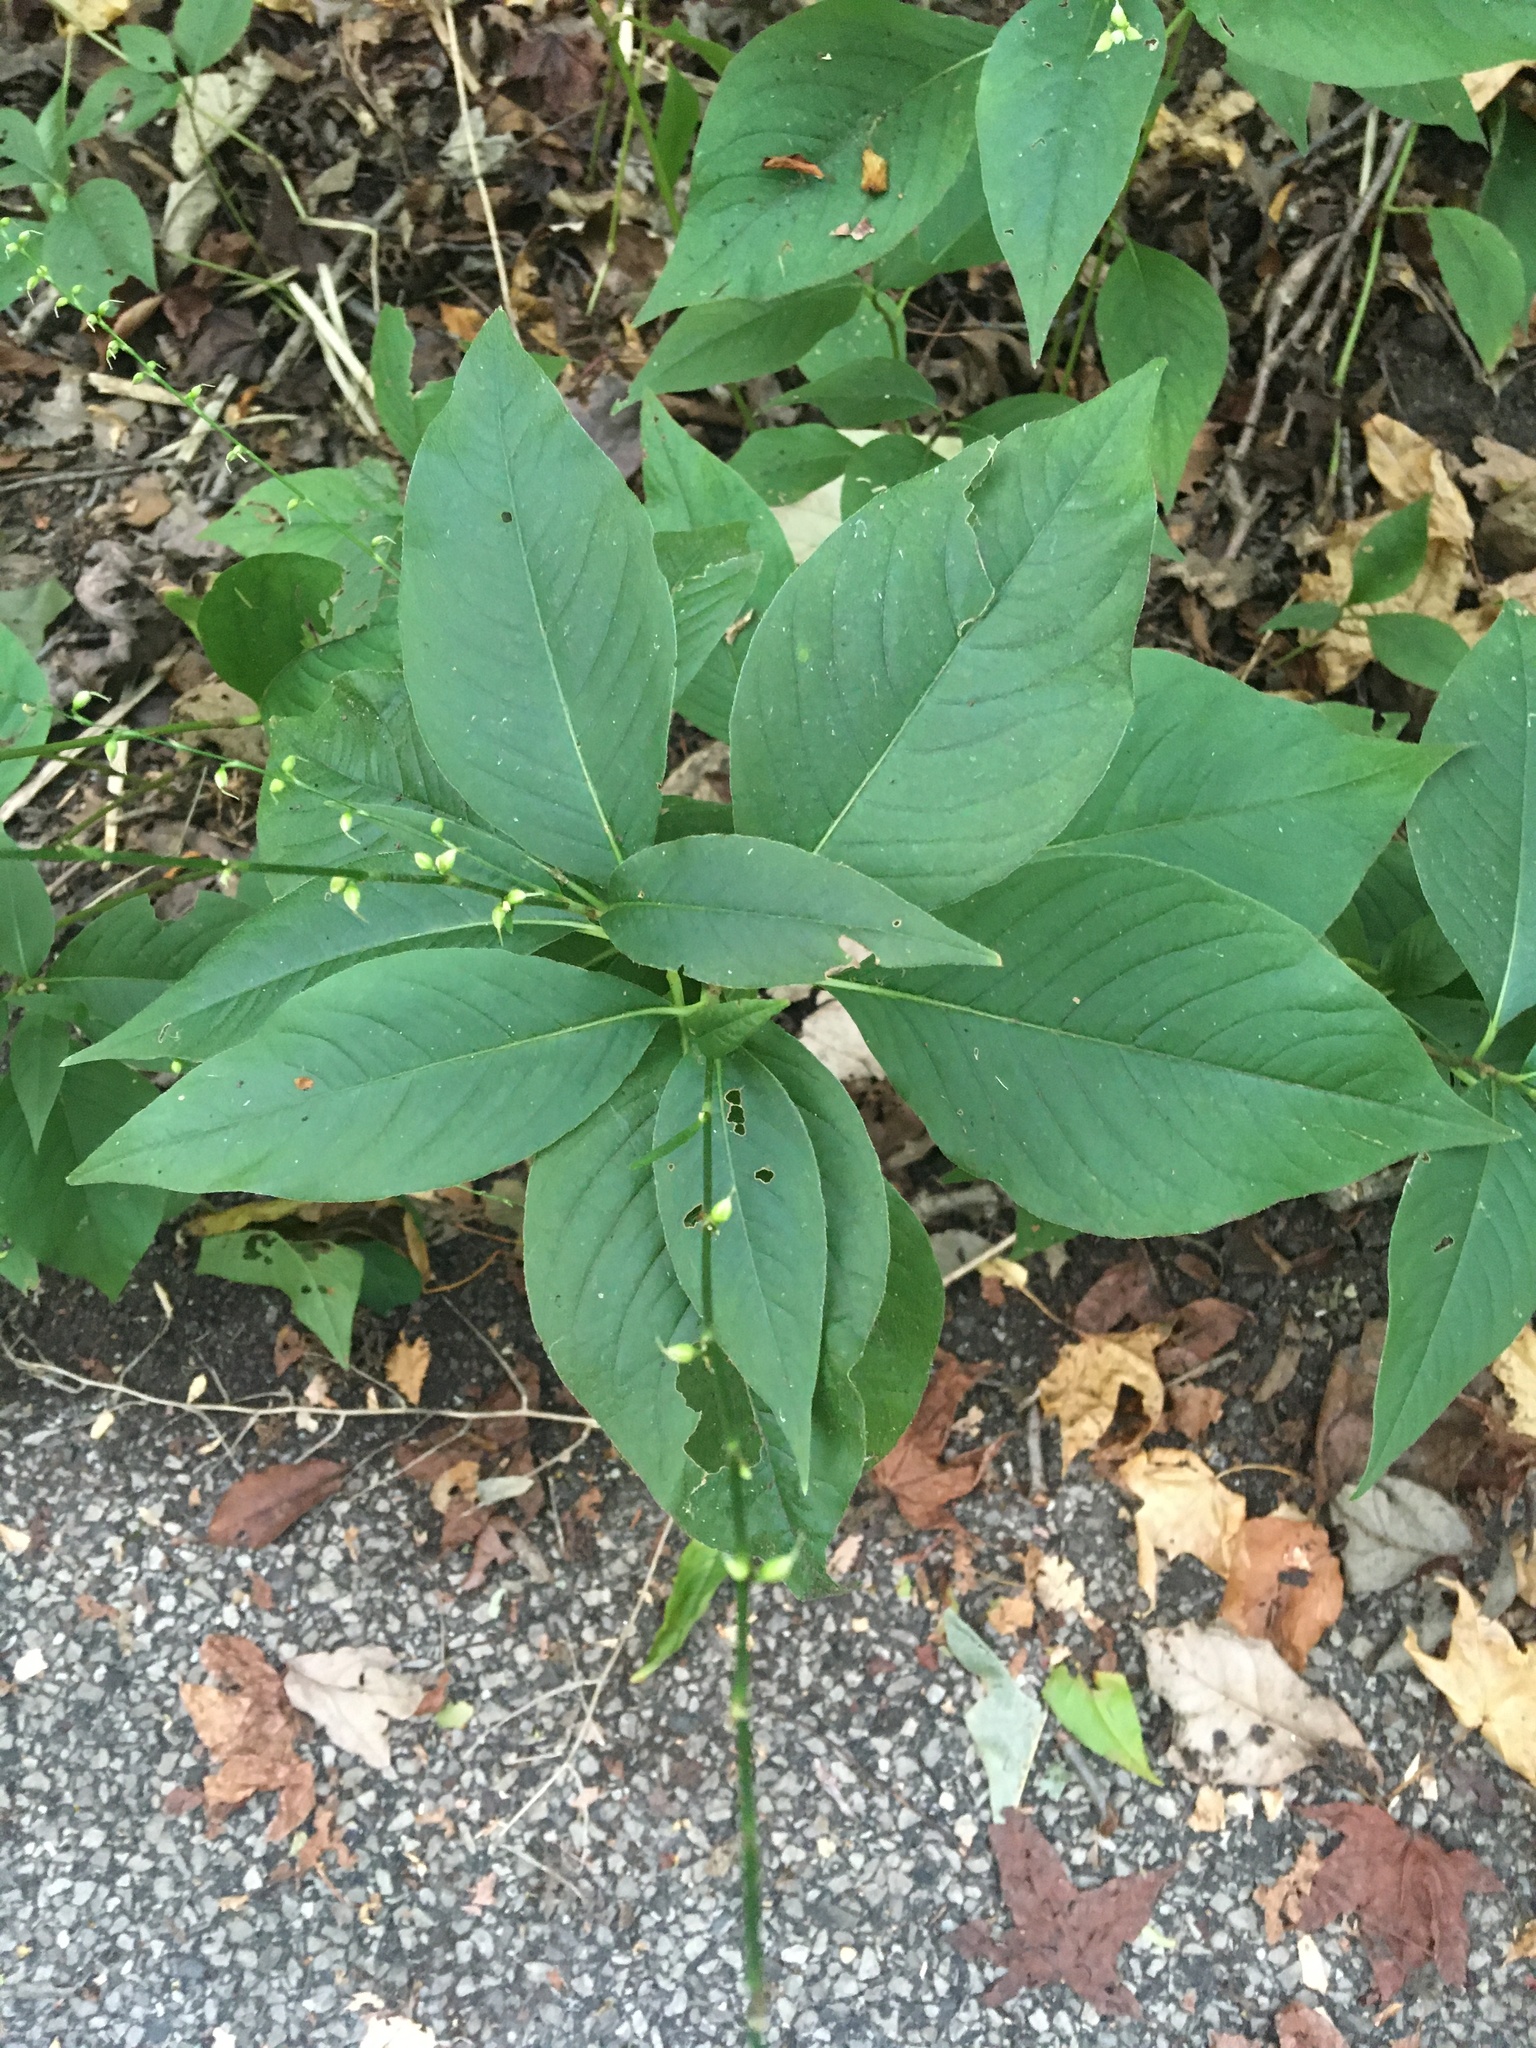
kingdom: Plantae
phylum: Tracheophyta
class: Magnoliopsida
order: Caryophyllales
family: Polygonaceae
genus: Persicaria
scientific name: Persicaria virginiana
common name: Jumpseed
